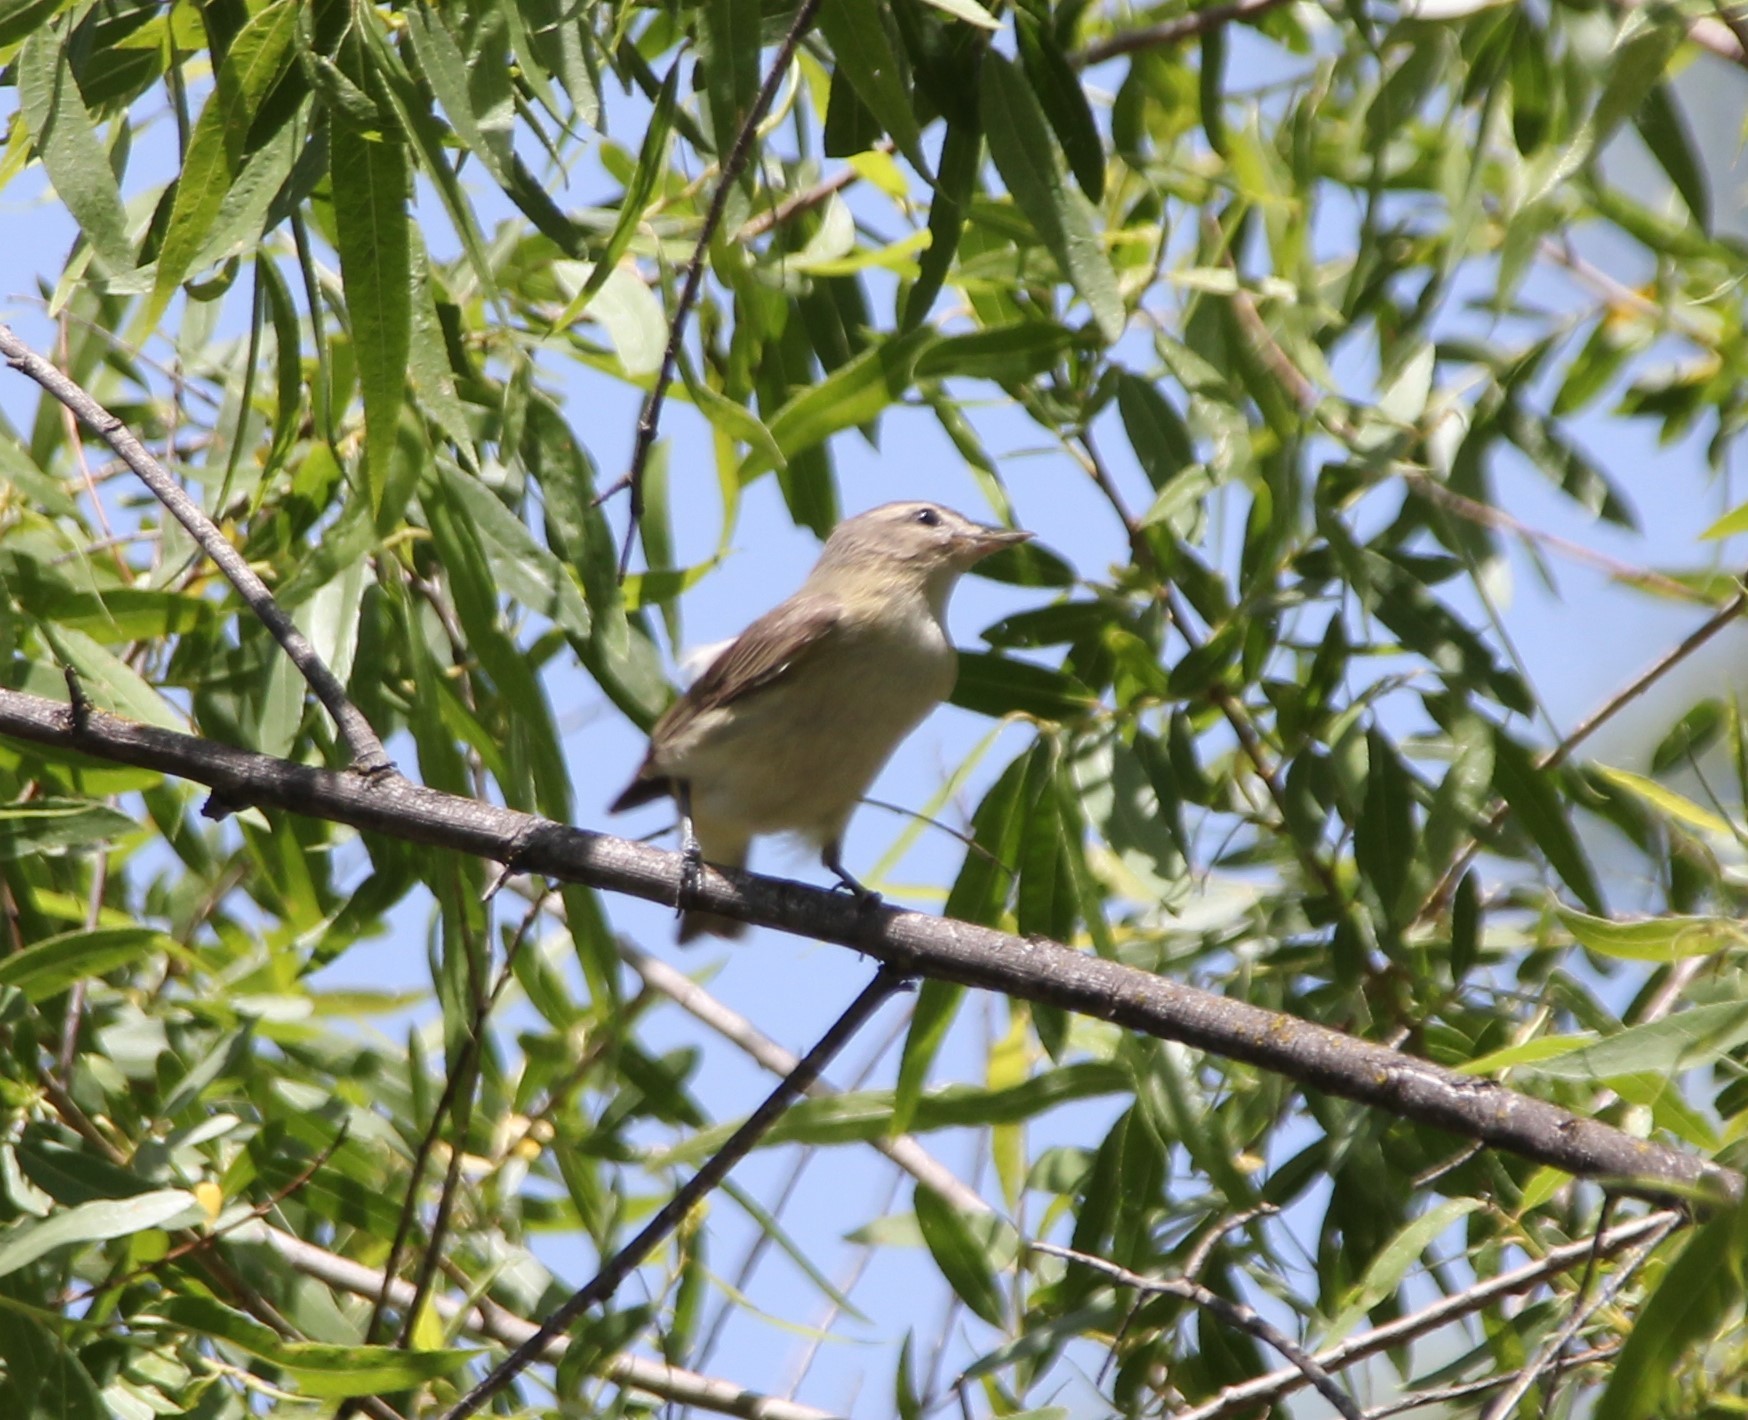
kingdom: Animalia
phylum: Chordata
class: Aves
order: Passeriformes
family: Vireonidae
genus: Vireo
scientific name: Vireo gilvus
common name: Warbling vireo
